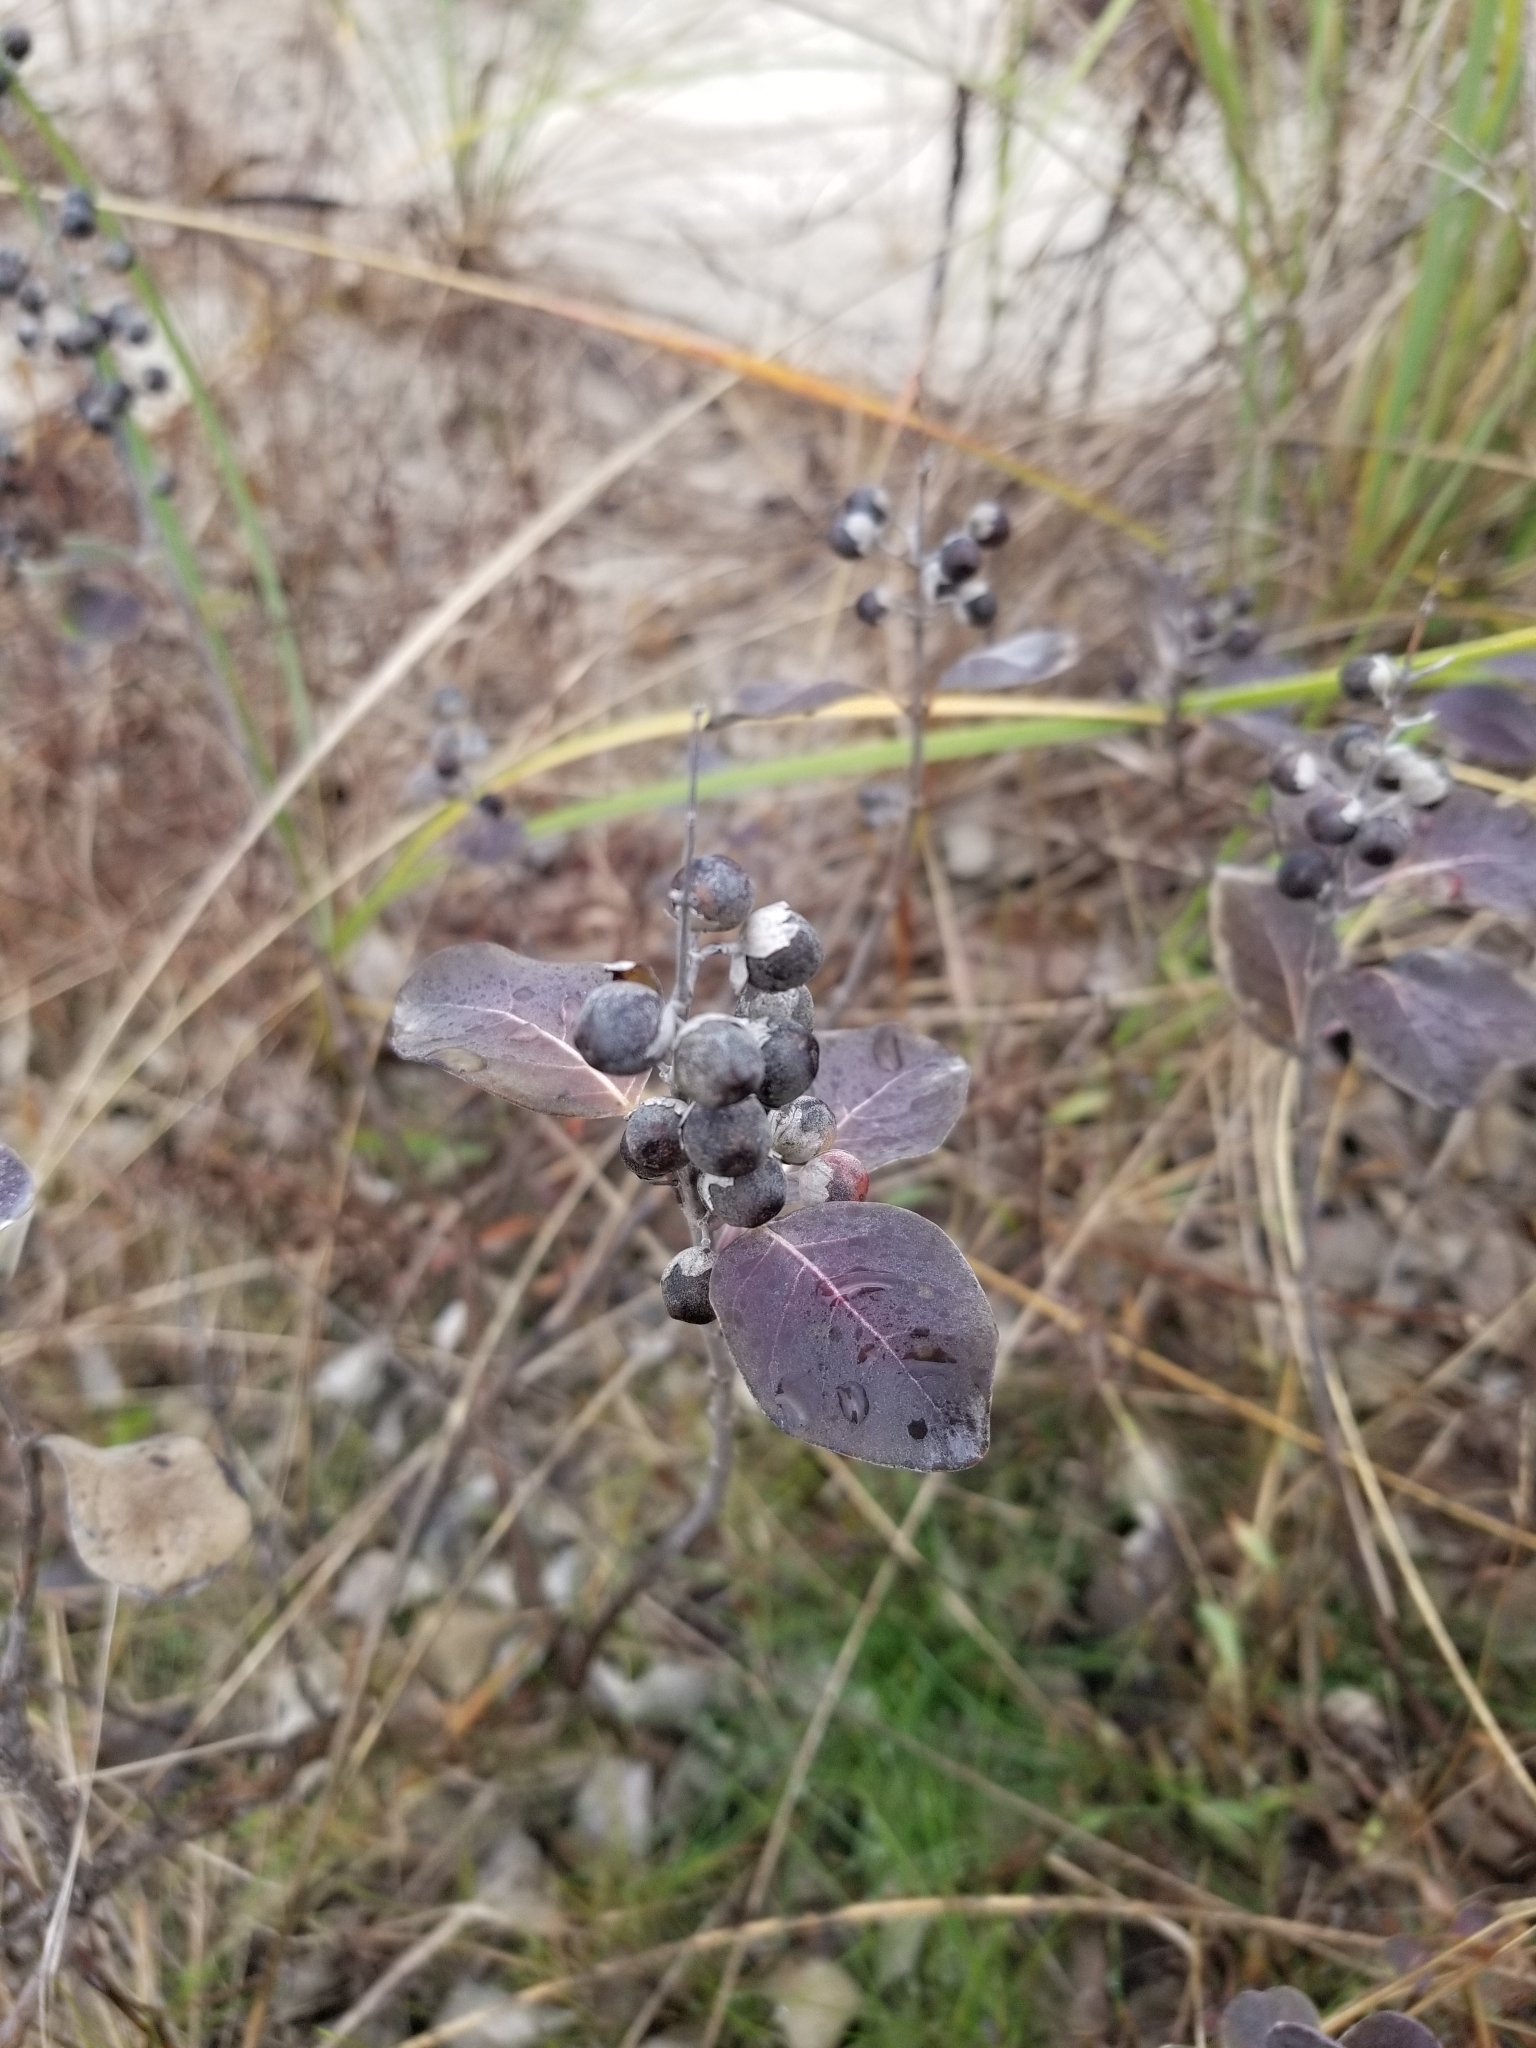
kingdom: Plantae
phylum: Tracheophyta
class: Magnoliopsida
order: Lamiales
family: Lamiaceae
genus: Vitex
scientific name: Vitex rotundifolia
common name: Beach vitex
